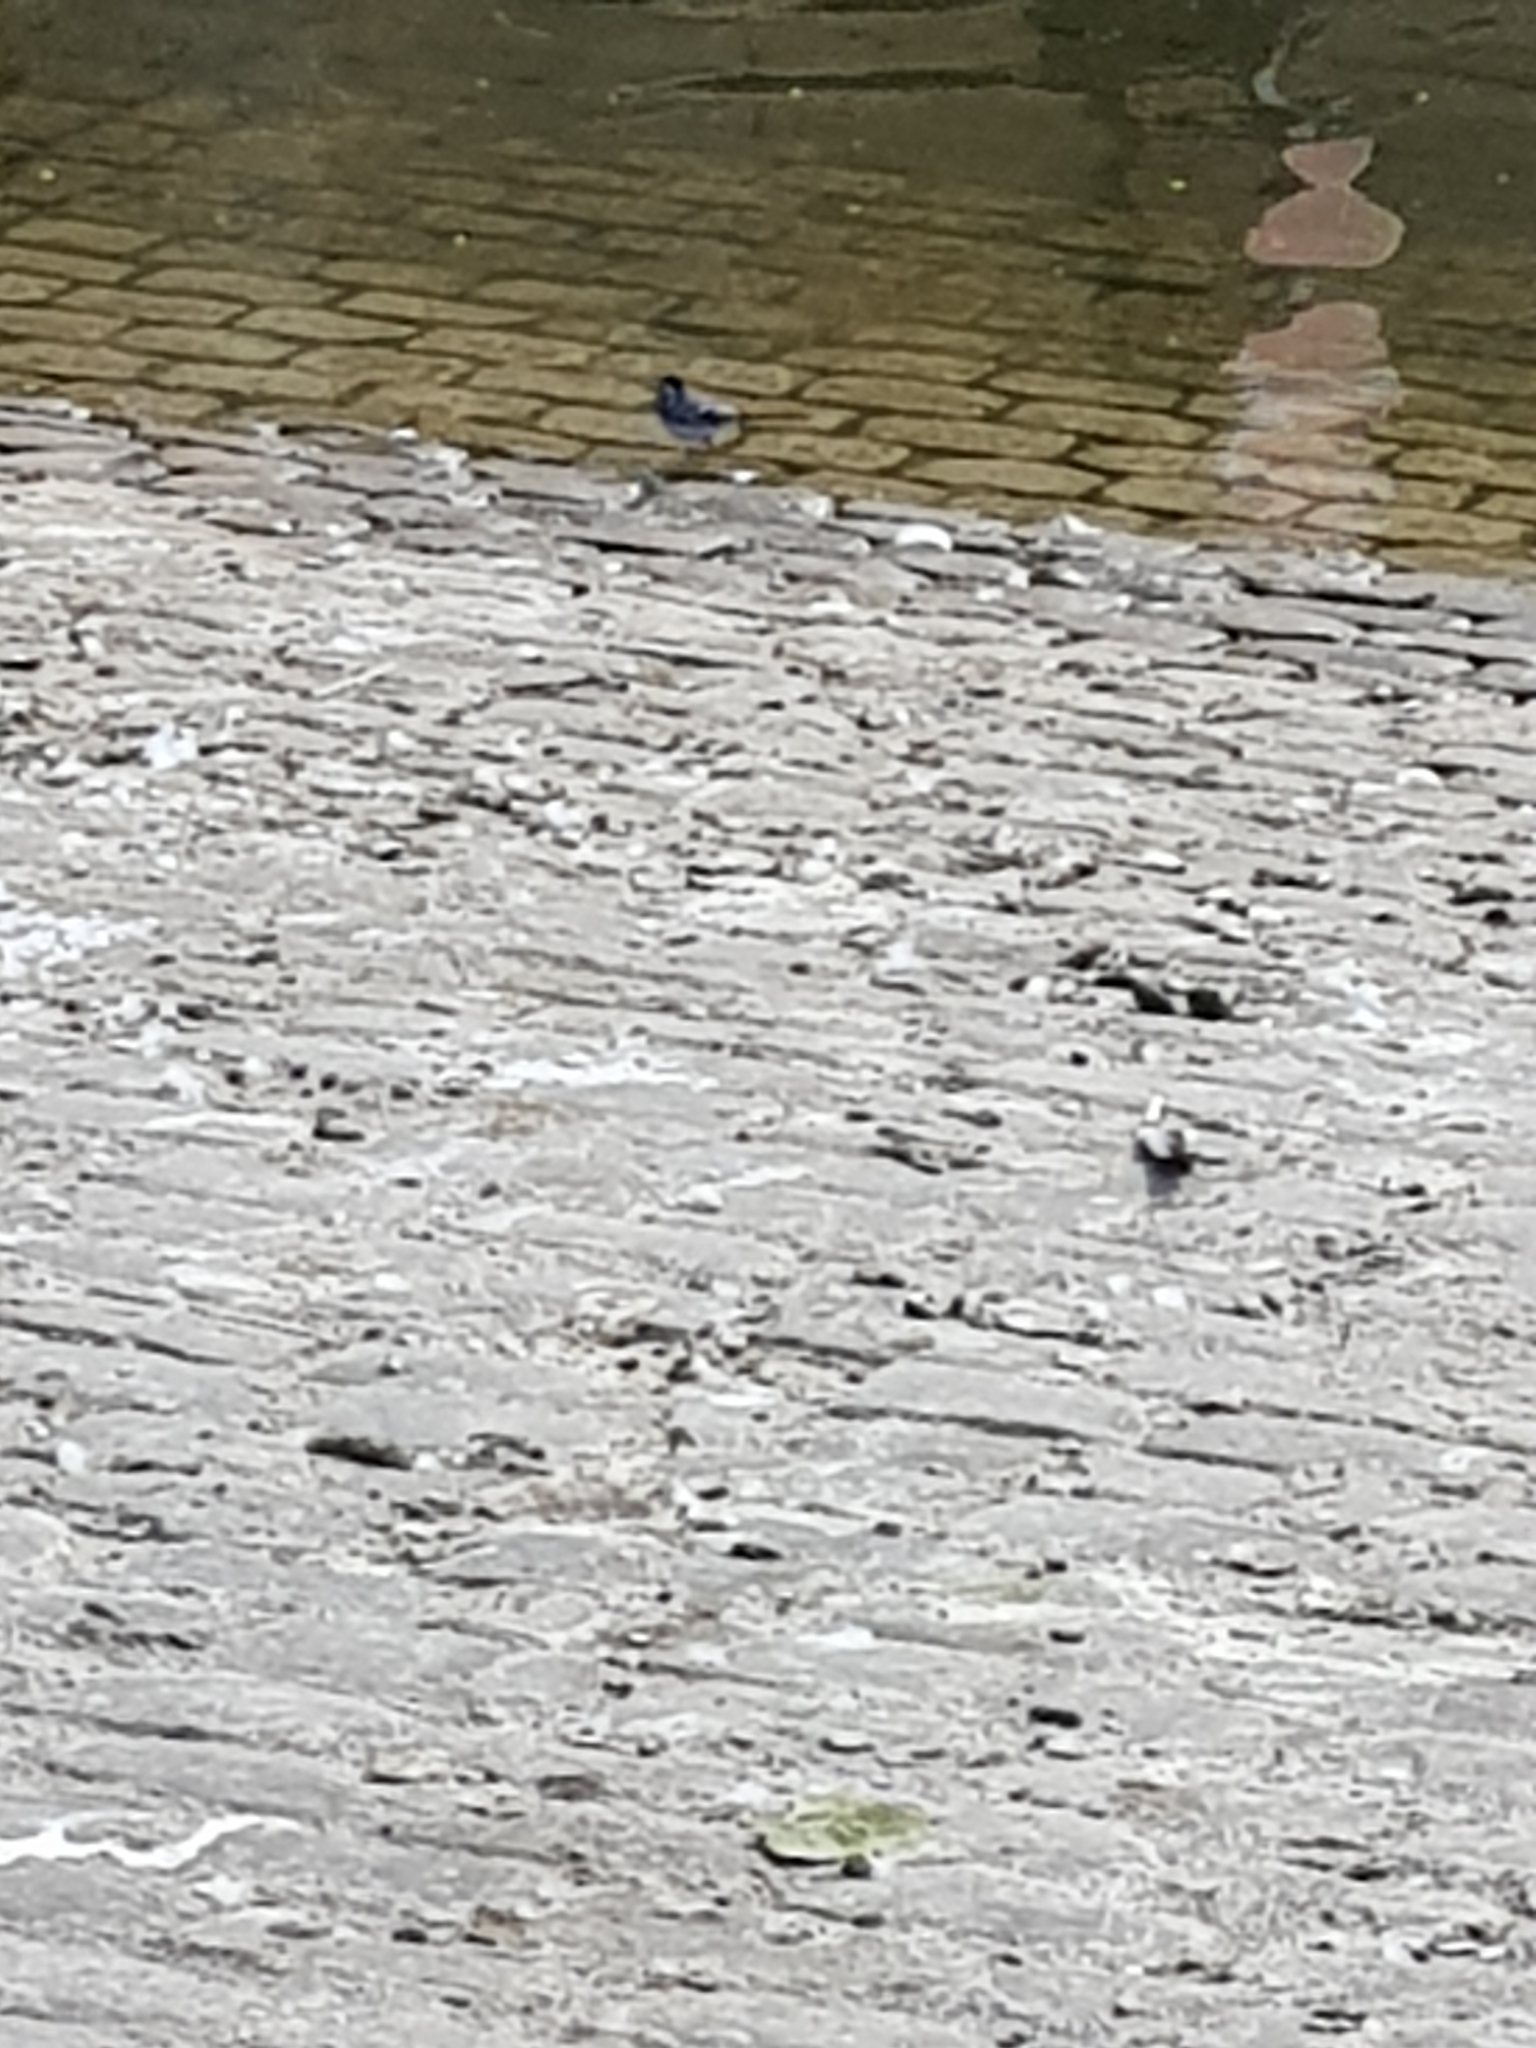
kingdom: Animalia
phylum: Chordata
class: Aves
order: Passeriformes
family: Motacillidae
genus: Motacilla
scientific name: Motacilla alba
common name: White wagtail
